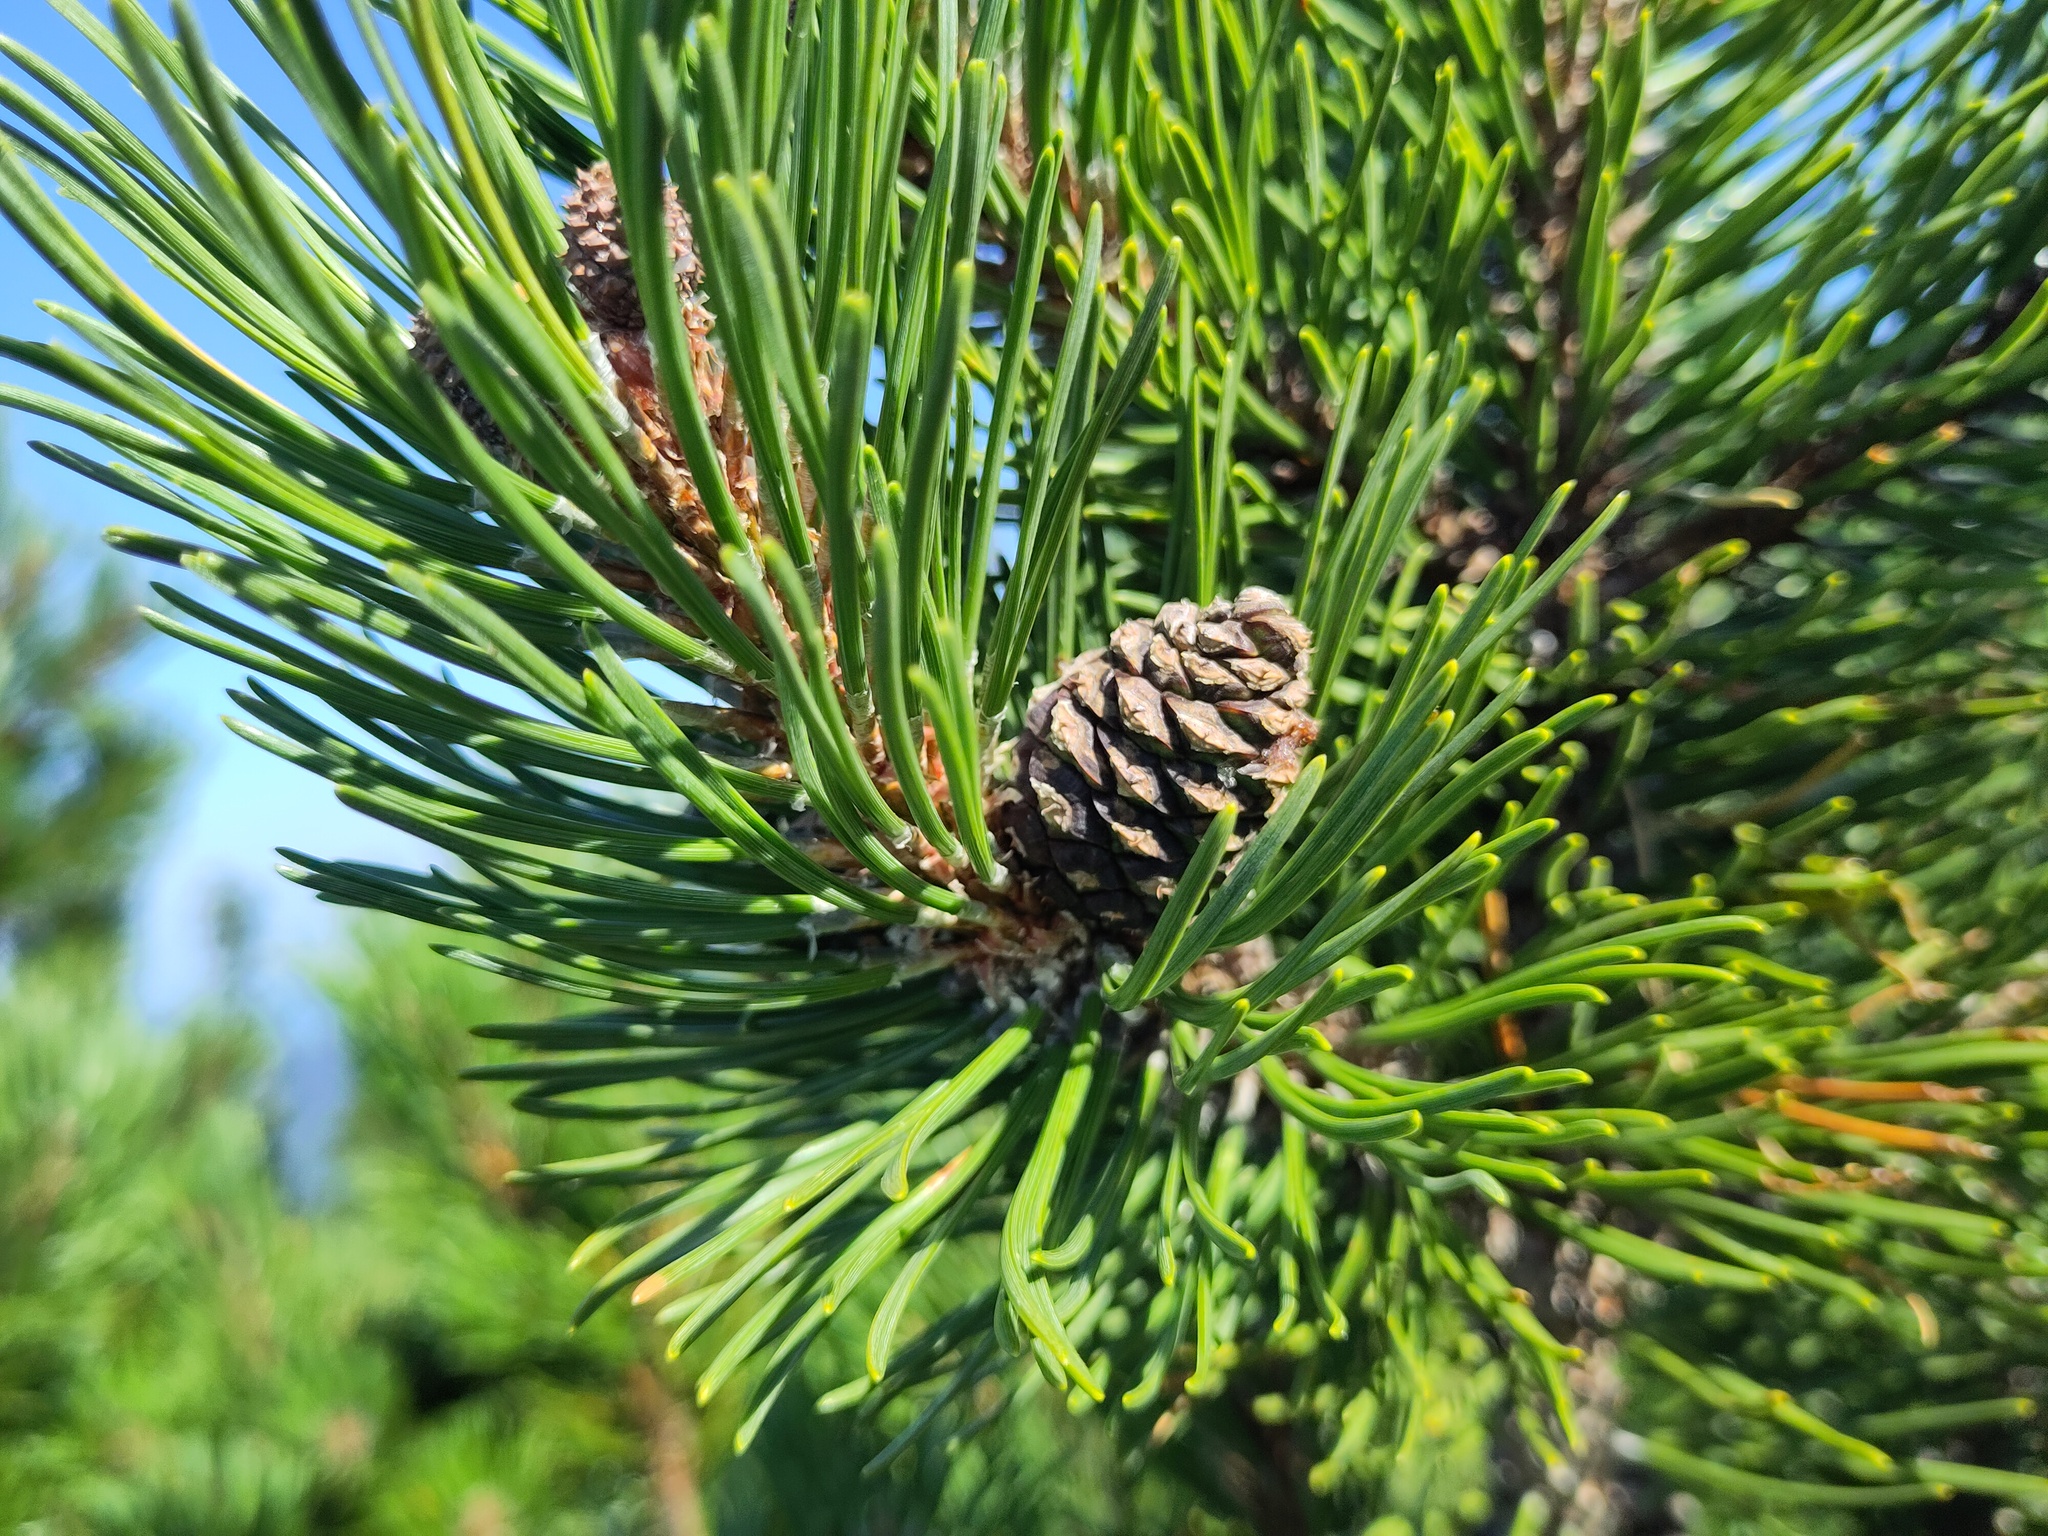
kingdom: Plantae
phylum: Tracheophyta
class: Pinopsida
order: Pinales
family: Pinaceae
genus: Pinus
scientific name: Pinus mugo
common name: Mugo pine
